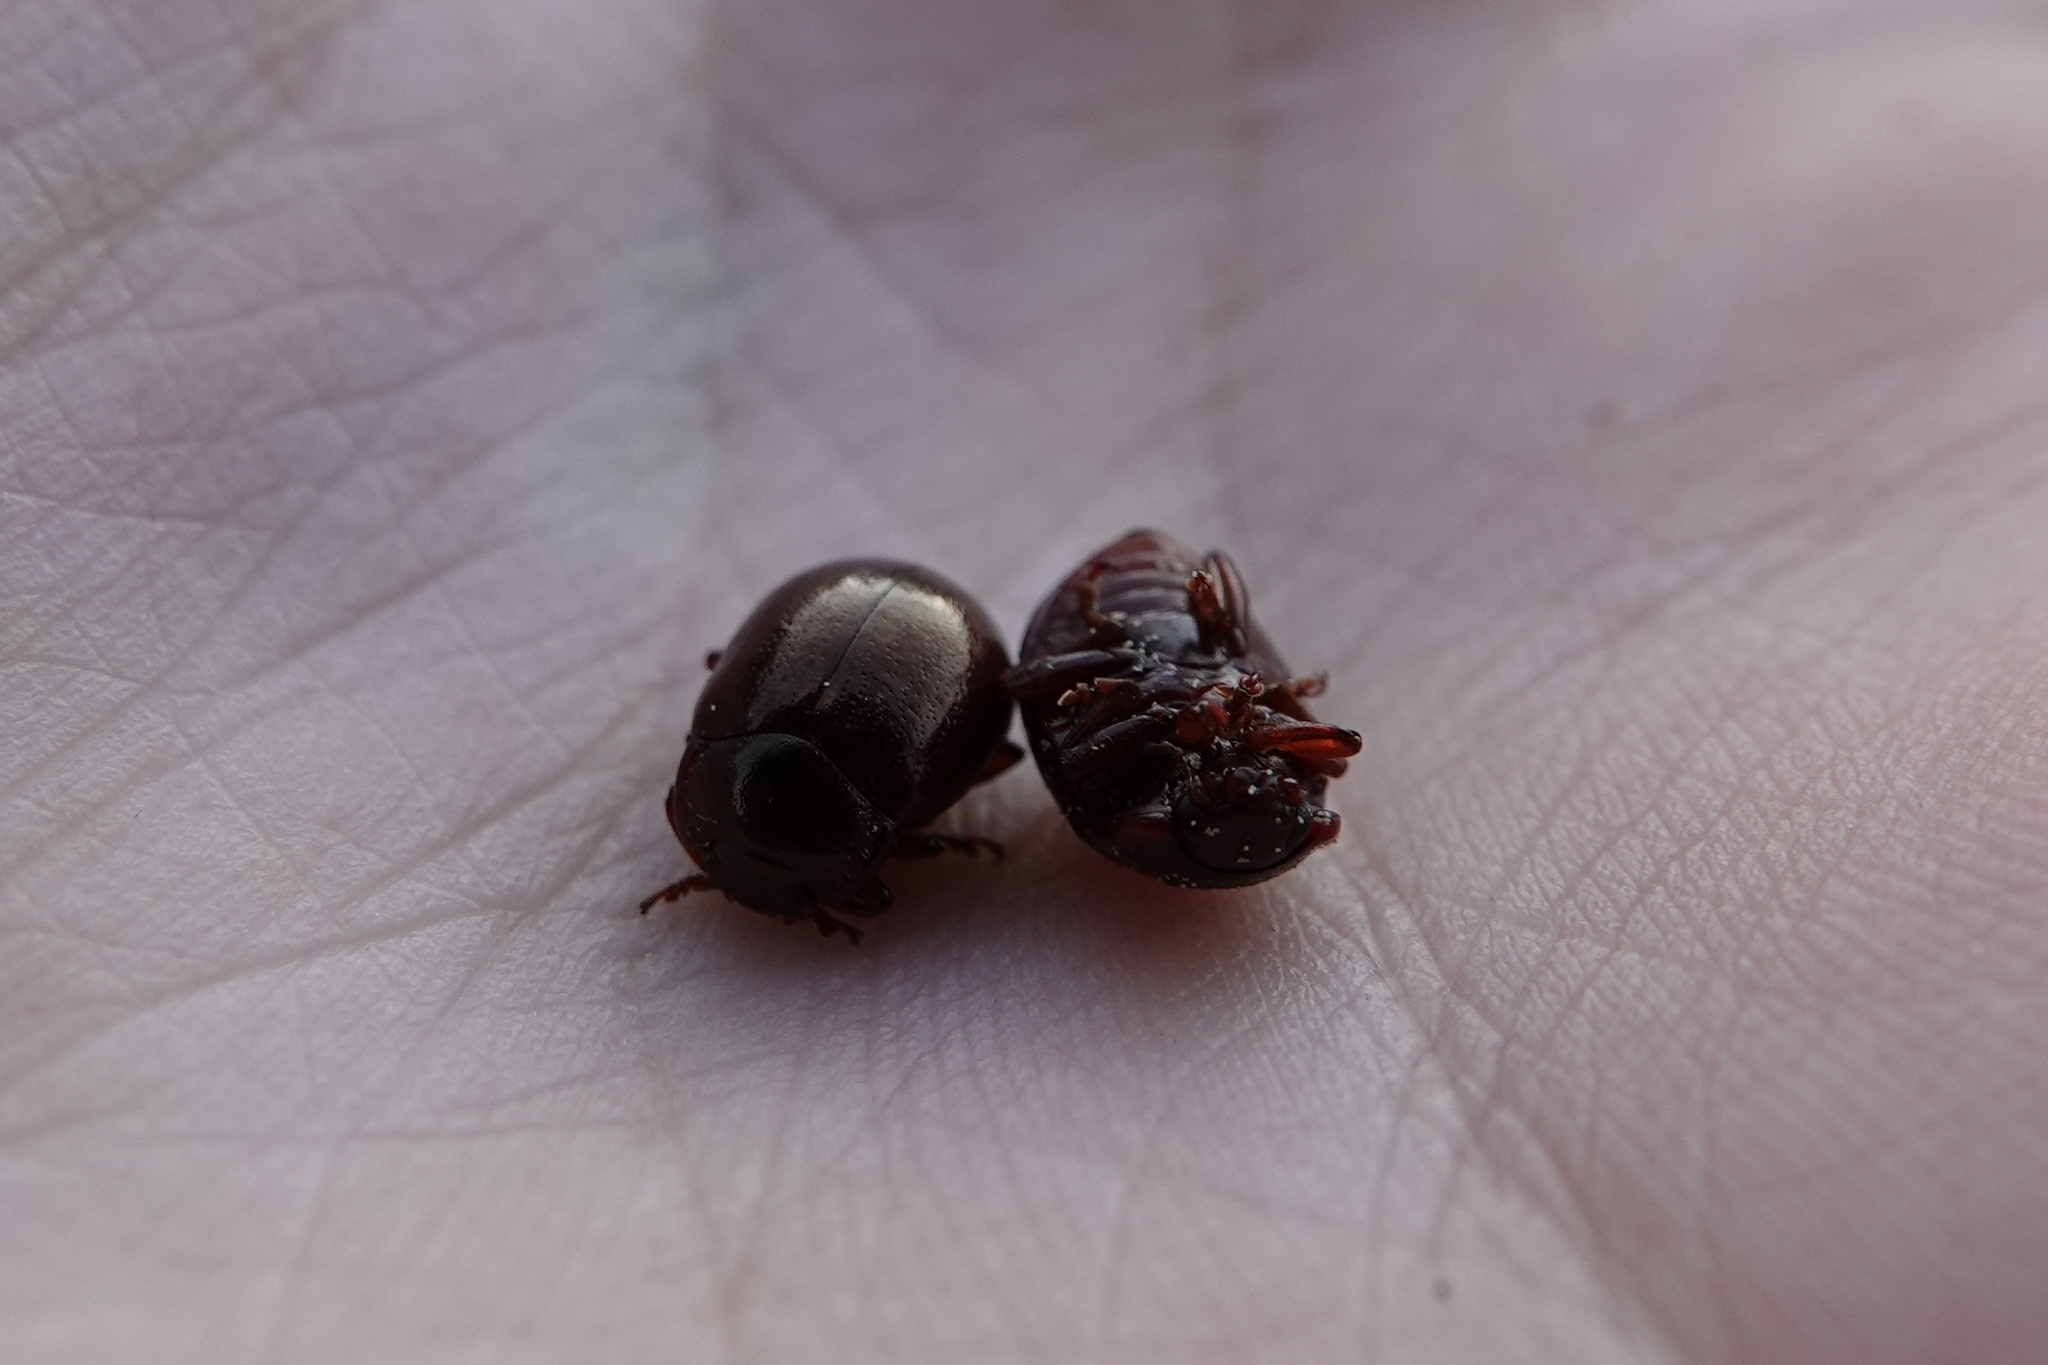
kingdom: Animalia
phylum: Arthropoda
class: Insecta
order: Coleoptera
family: Chrysomelidae
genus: Chrysolina
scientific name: Chrysolina staphylaea
